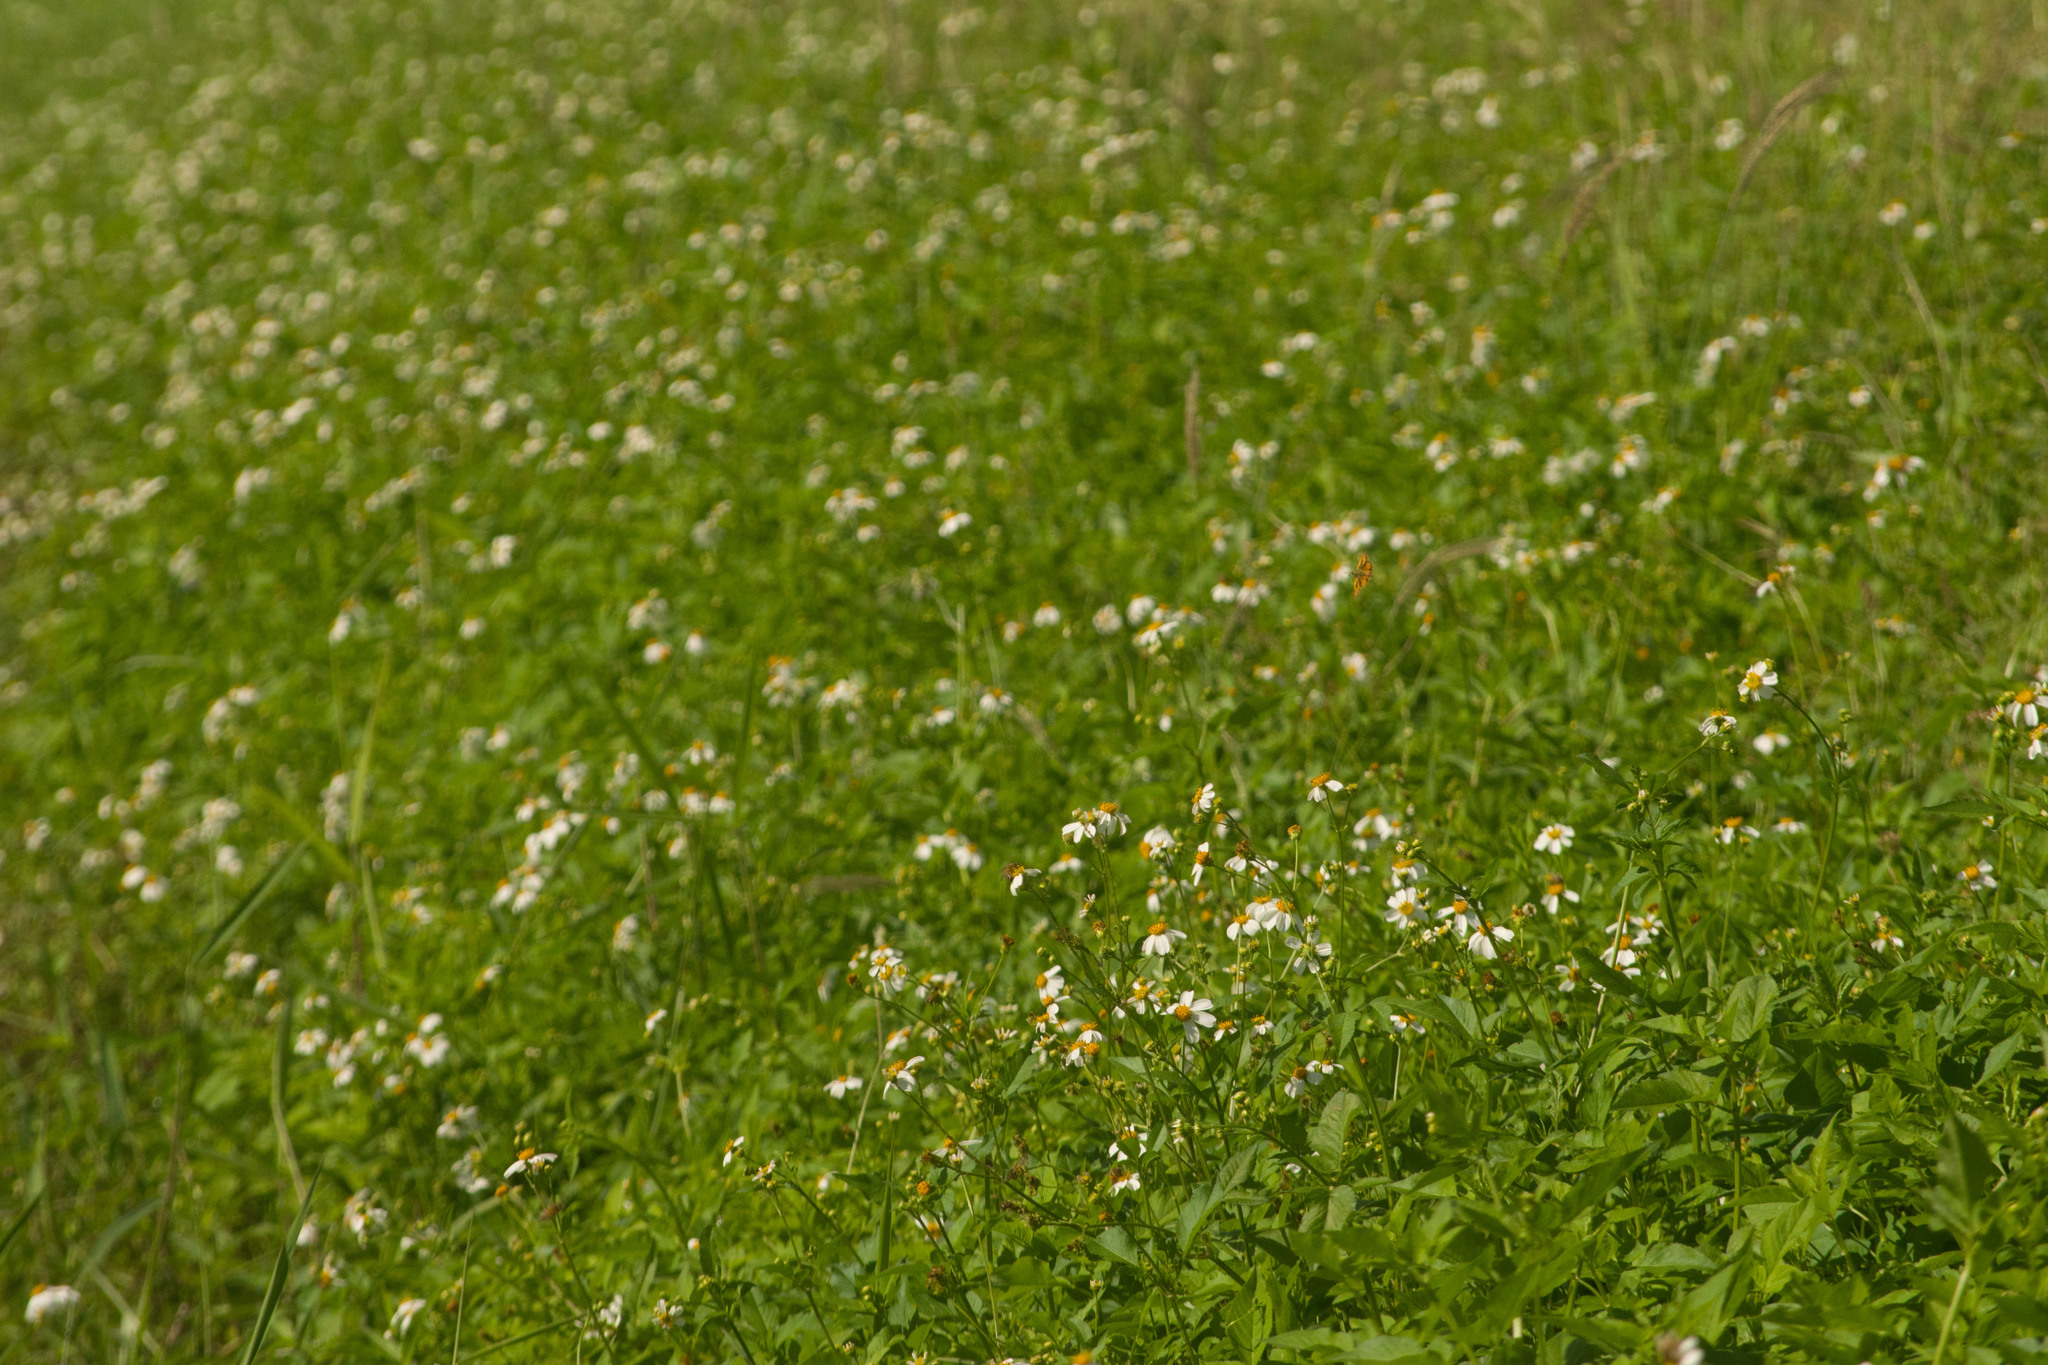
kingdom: Plantae
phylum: Tracheophyta
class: Magnoliopsida
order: Asterales
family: Asteraceae
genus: Bidens
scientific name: Bidens alba
